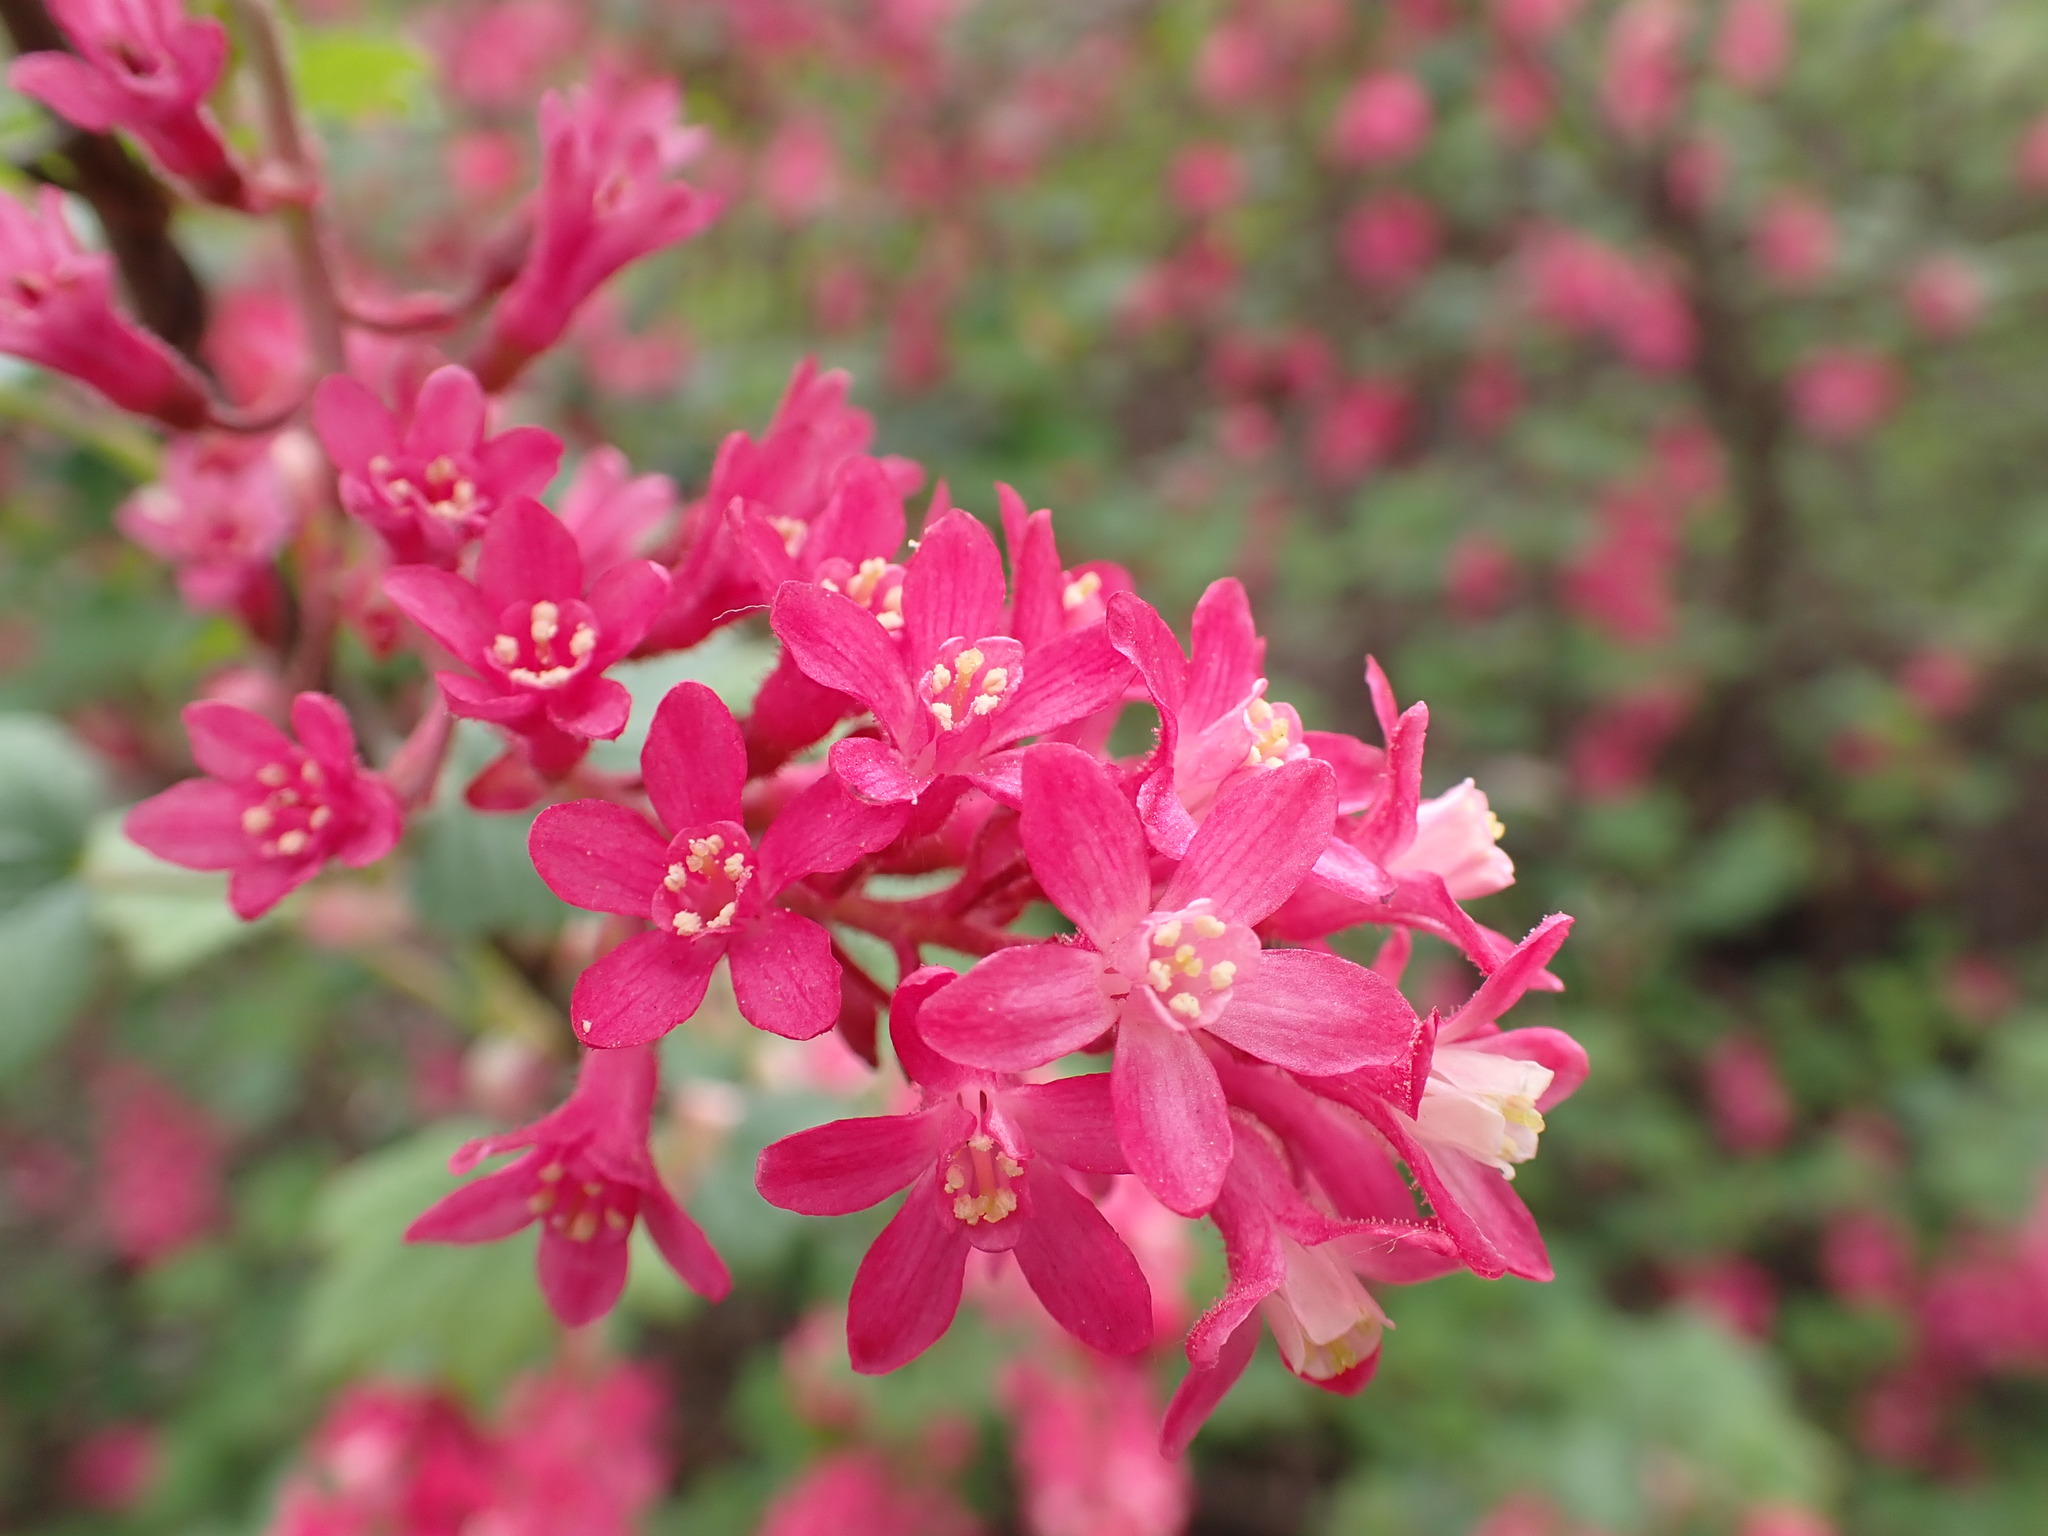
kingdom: Plantae
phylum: Tracheophyta
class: Magnoliopsida
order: Saxifragales
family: Grossulariaceae
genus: Ribes
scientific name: Ribes sanguineum
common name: Flowering currant
